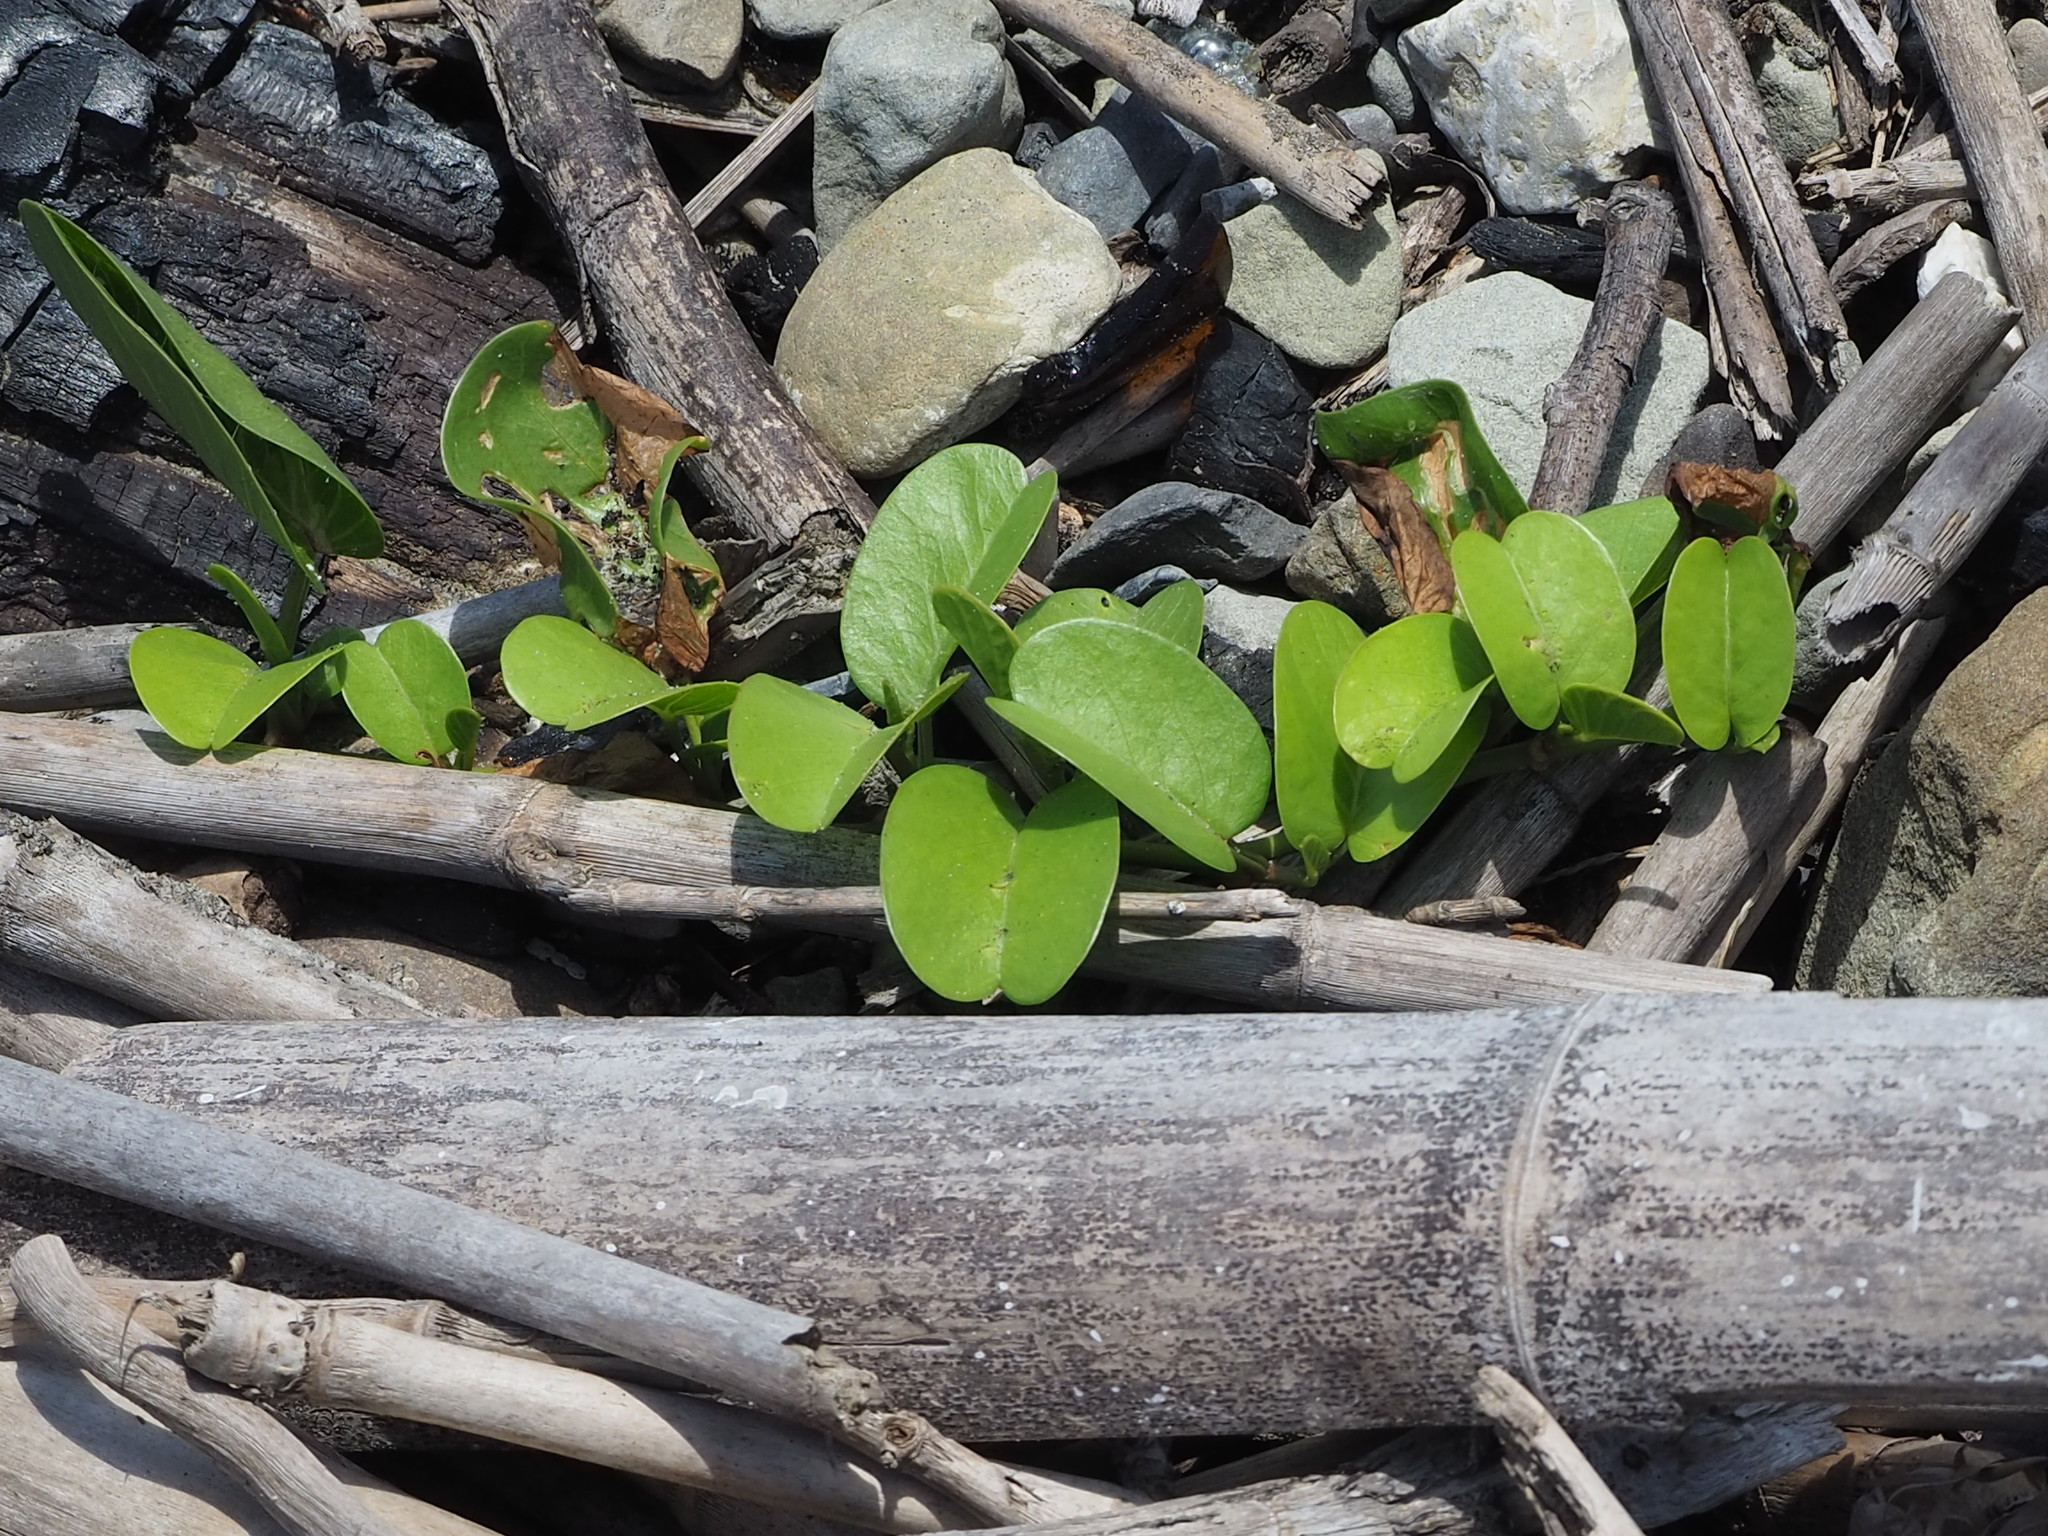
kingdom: Plantae
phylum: Tracheophyta
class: Magnoliopsida
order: Solanales
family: Convolvulaceae
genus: Ipomoea
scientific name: Ipomoea pes-caprae
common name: Beach morning glory
